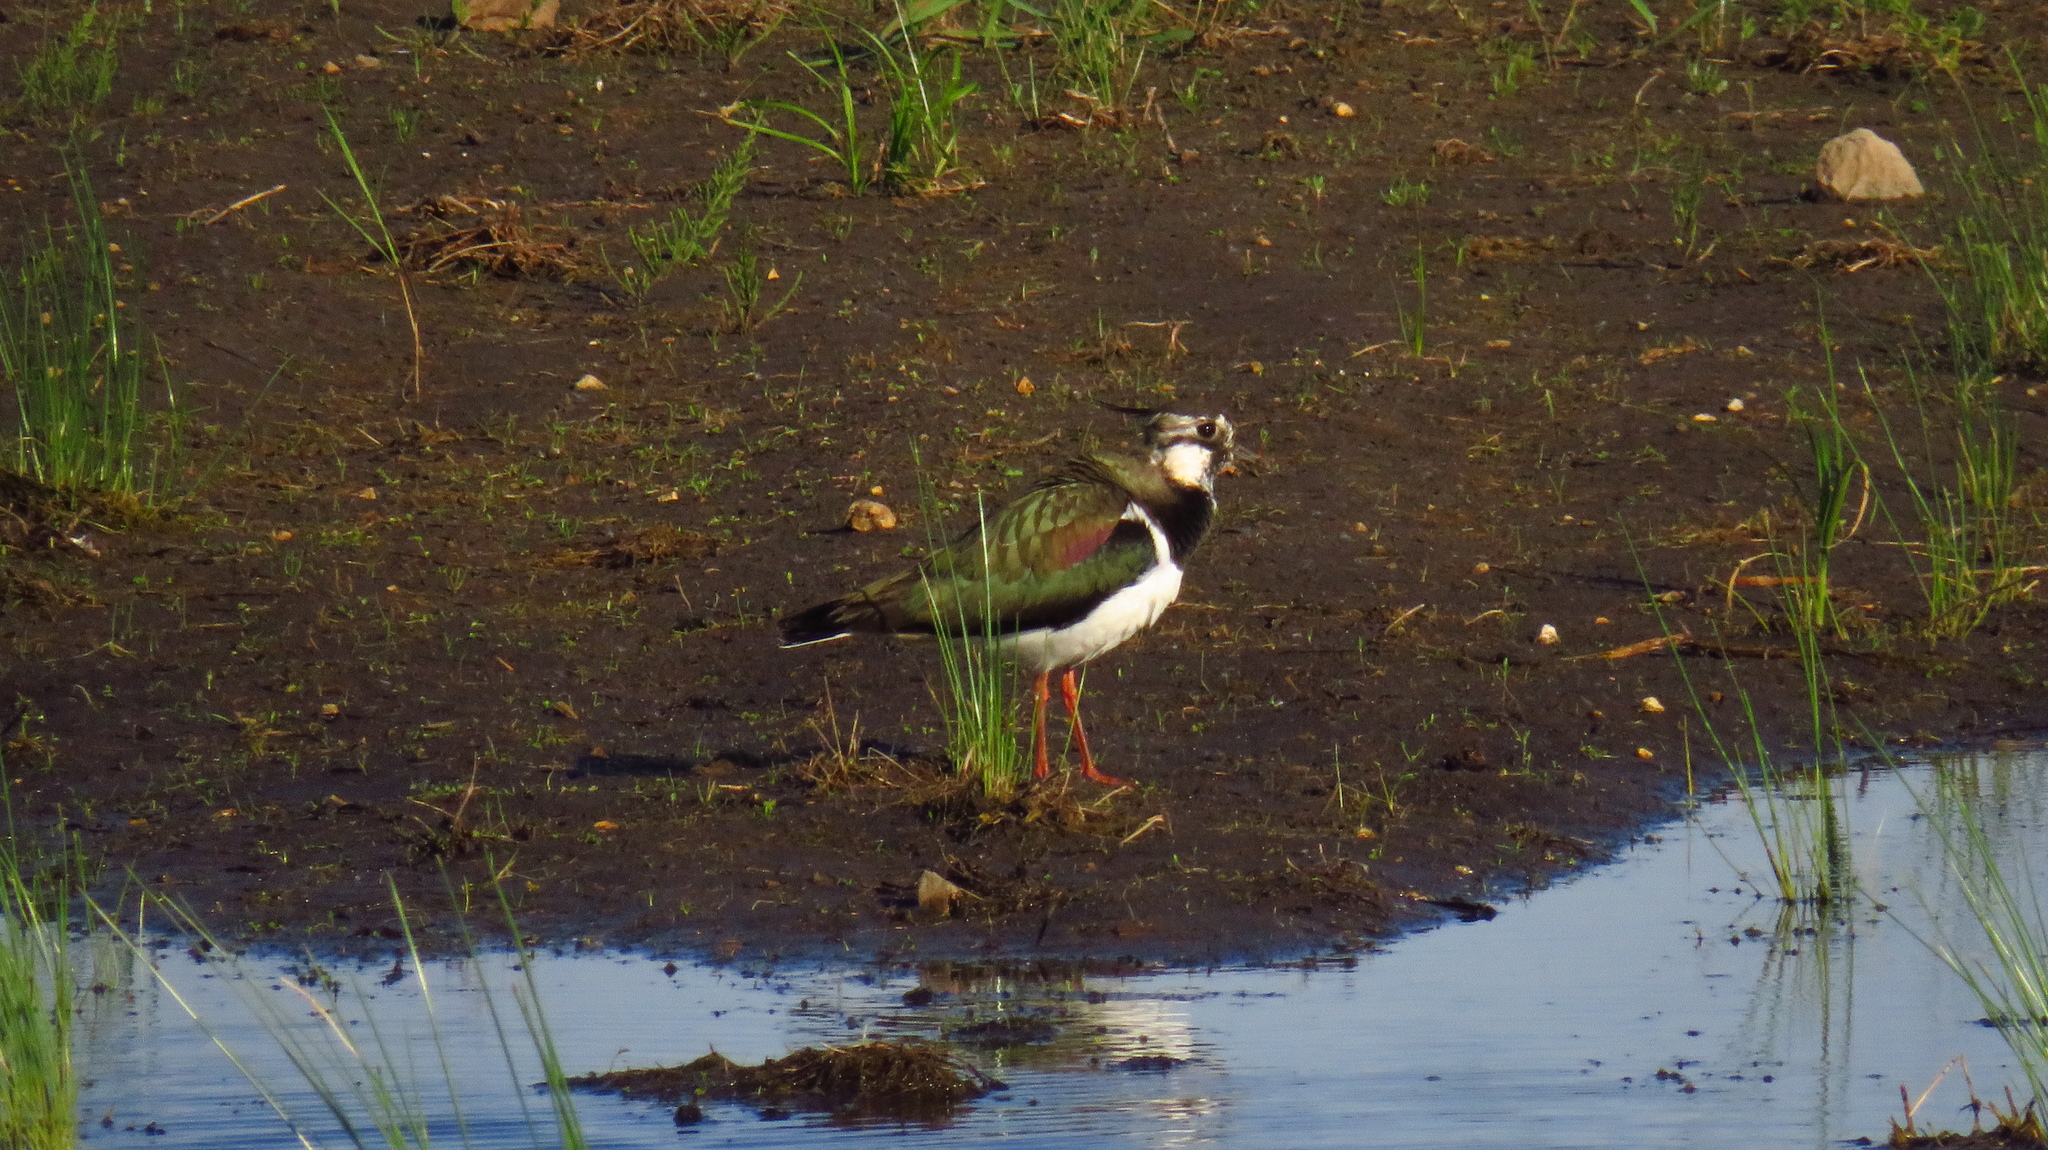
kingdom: Animalia
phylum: Chordata
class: Aves
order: Charadriiformes
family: Charadriidae
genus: Vanellus
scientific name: Vanellus vanellus
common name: Northern lapwing
